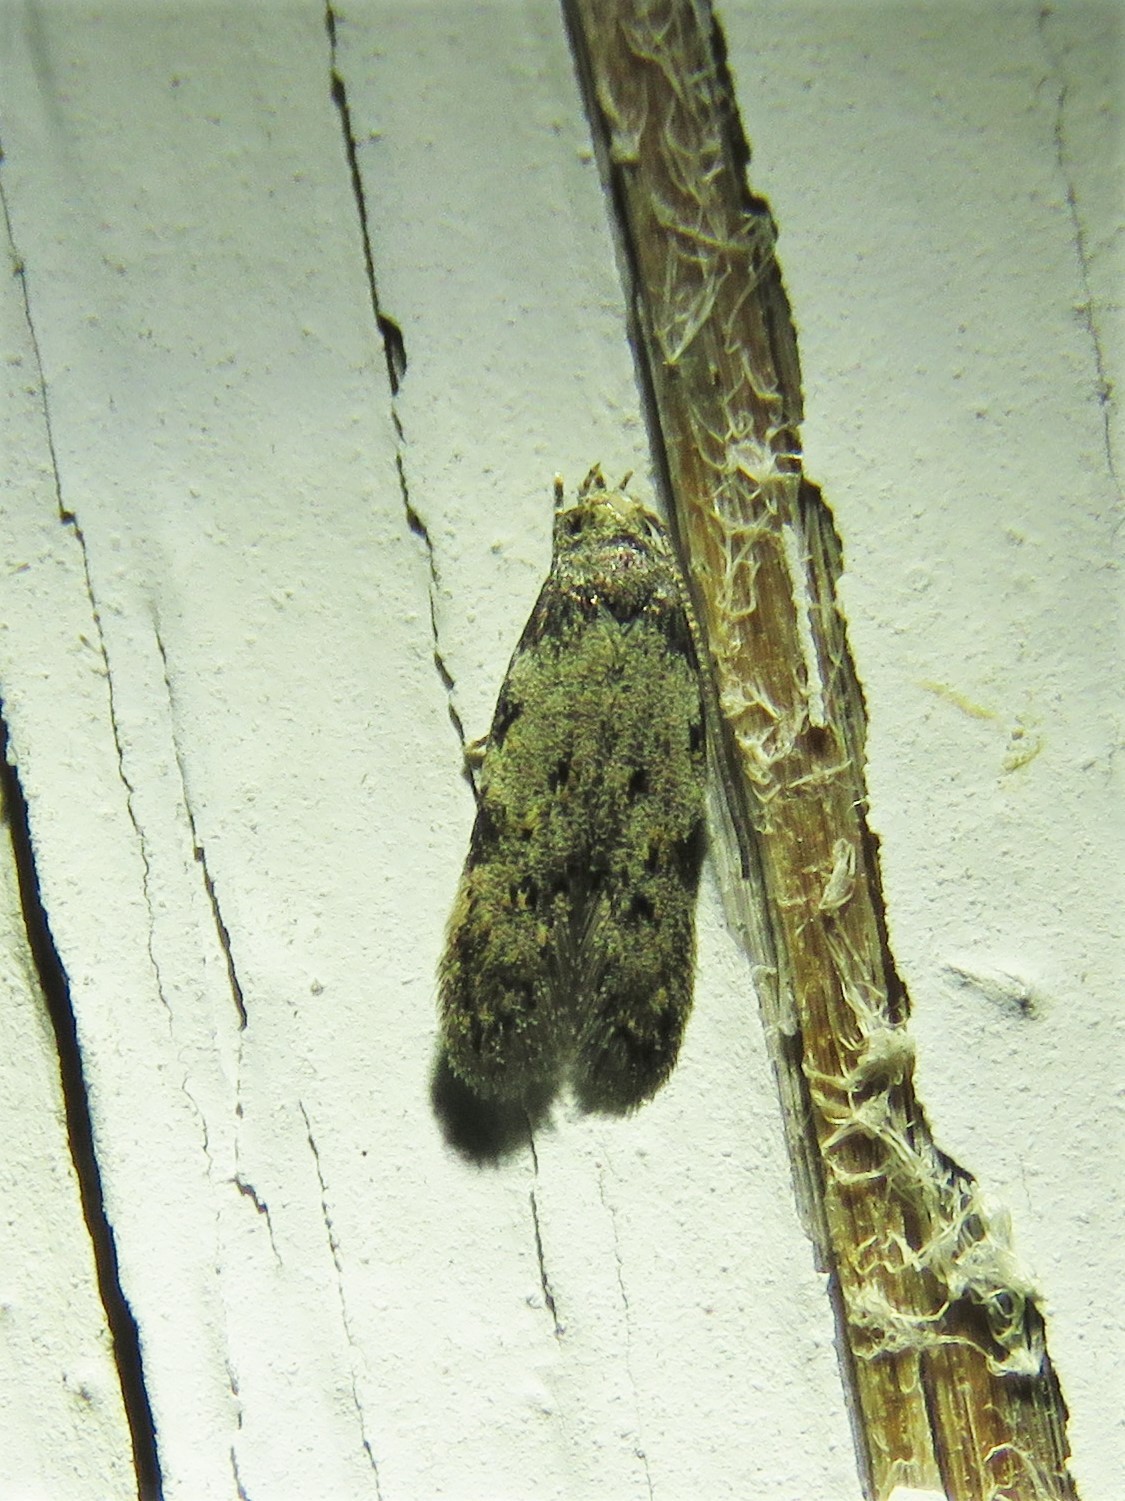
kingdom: Animalia
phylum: Arthropoda
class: Insecta
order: Lepidoptera
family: Autostichidae
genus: Taygete
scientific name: Taygete attributella
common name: Triangle-marked twirler moth
